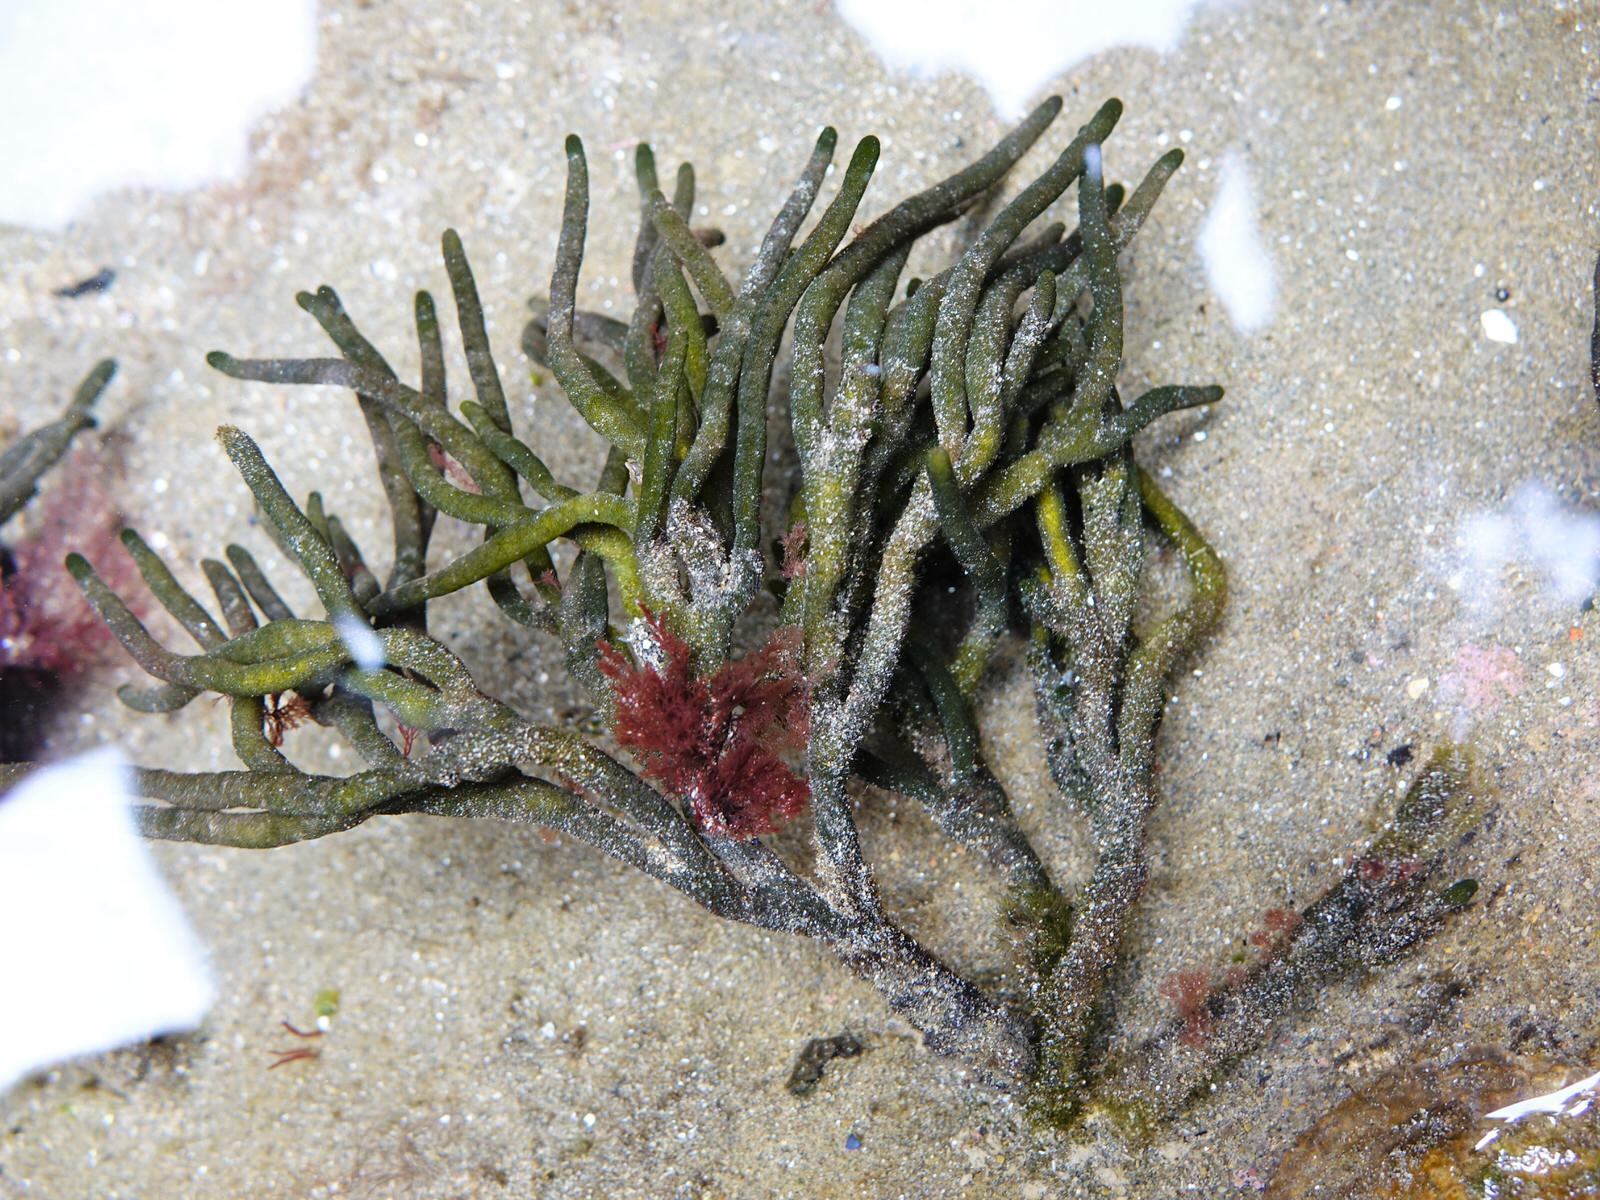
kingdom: Plantae
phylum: Chlorophyta
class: Ulvophyceae
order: Bryopsidales
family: Codiaceae
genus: Codium
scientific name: Codium fragile
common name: Dead man's fingers
